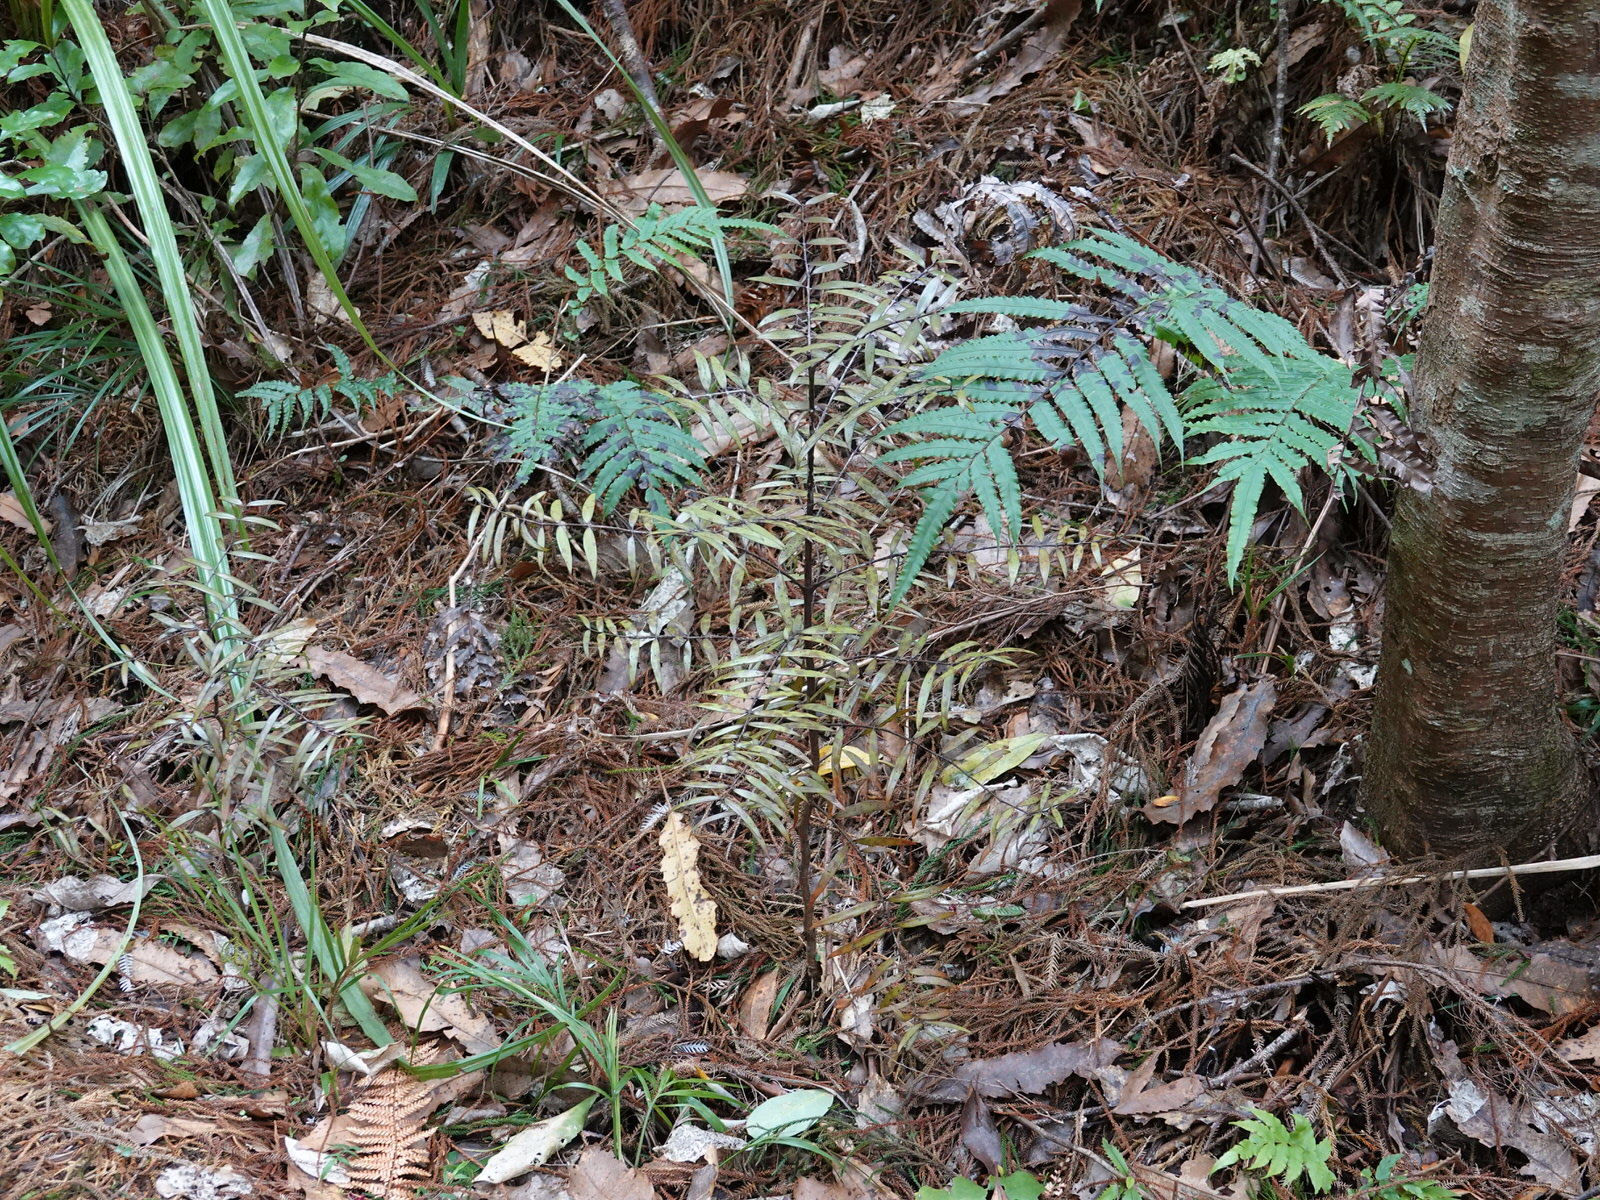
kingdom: Plantae
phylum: Tracheophyta
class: Pinopsida
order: Pinales
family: Araucariaceae
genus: Agathis
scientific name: Agathis australis
